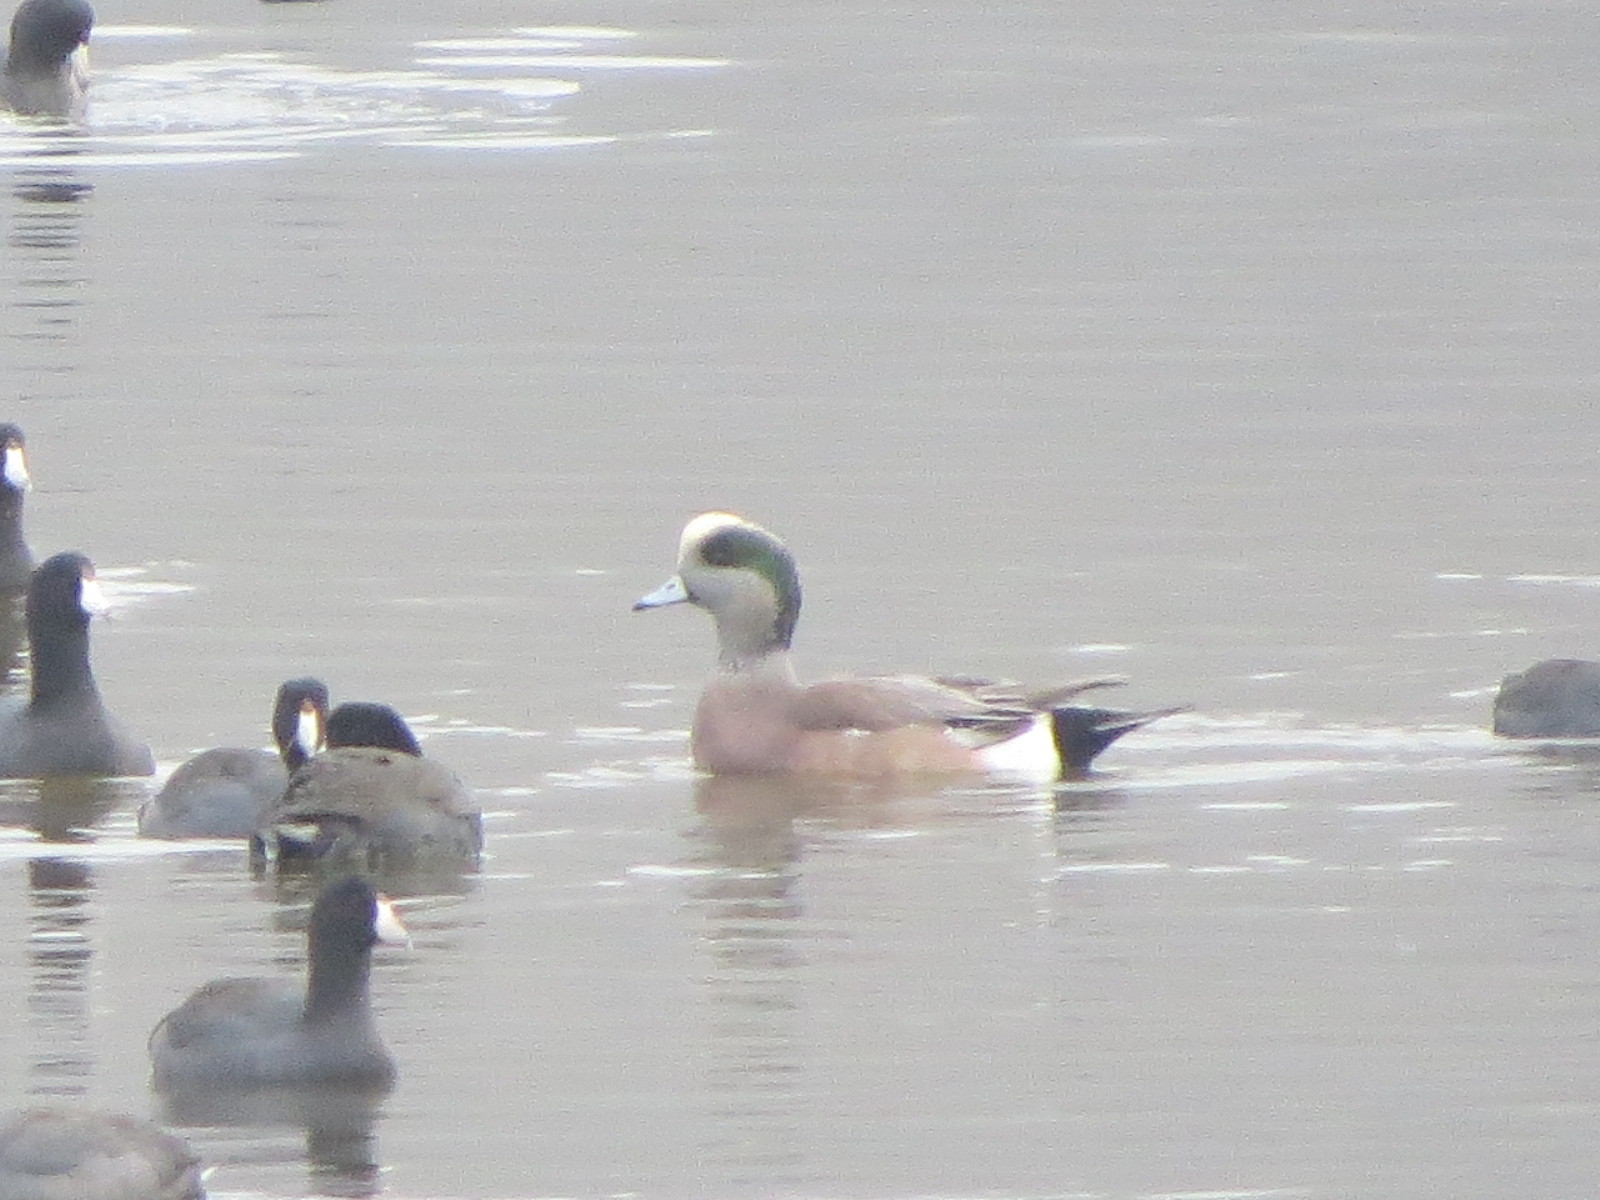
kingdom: Animalia
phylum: Chordata
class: Aves
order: Anseriformes
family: Anatidae
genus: Mareca
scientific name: Mareca americana
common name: American wigeon
